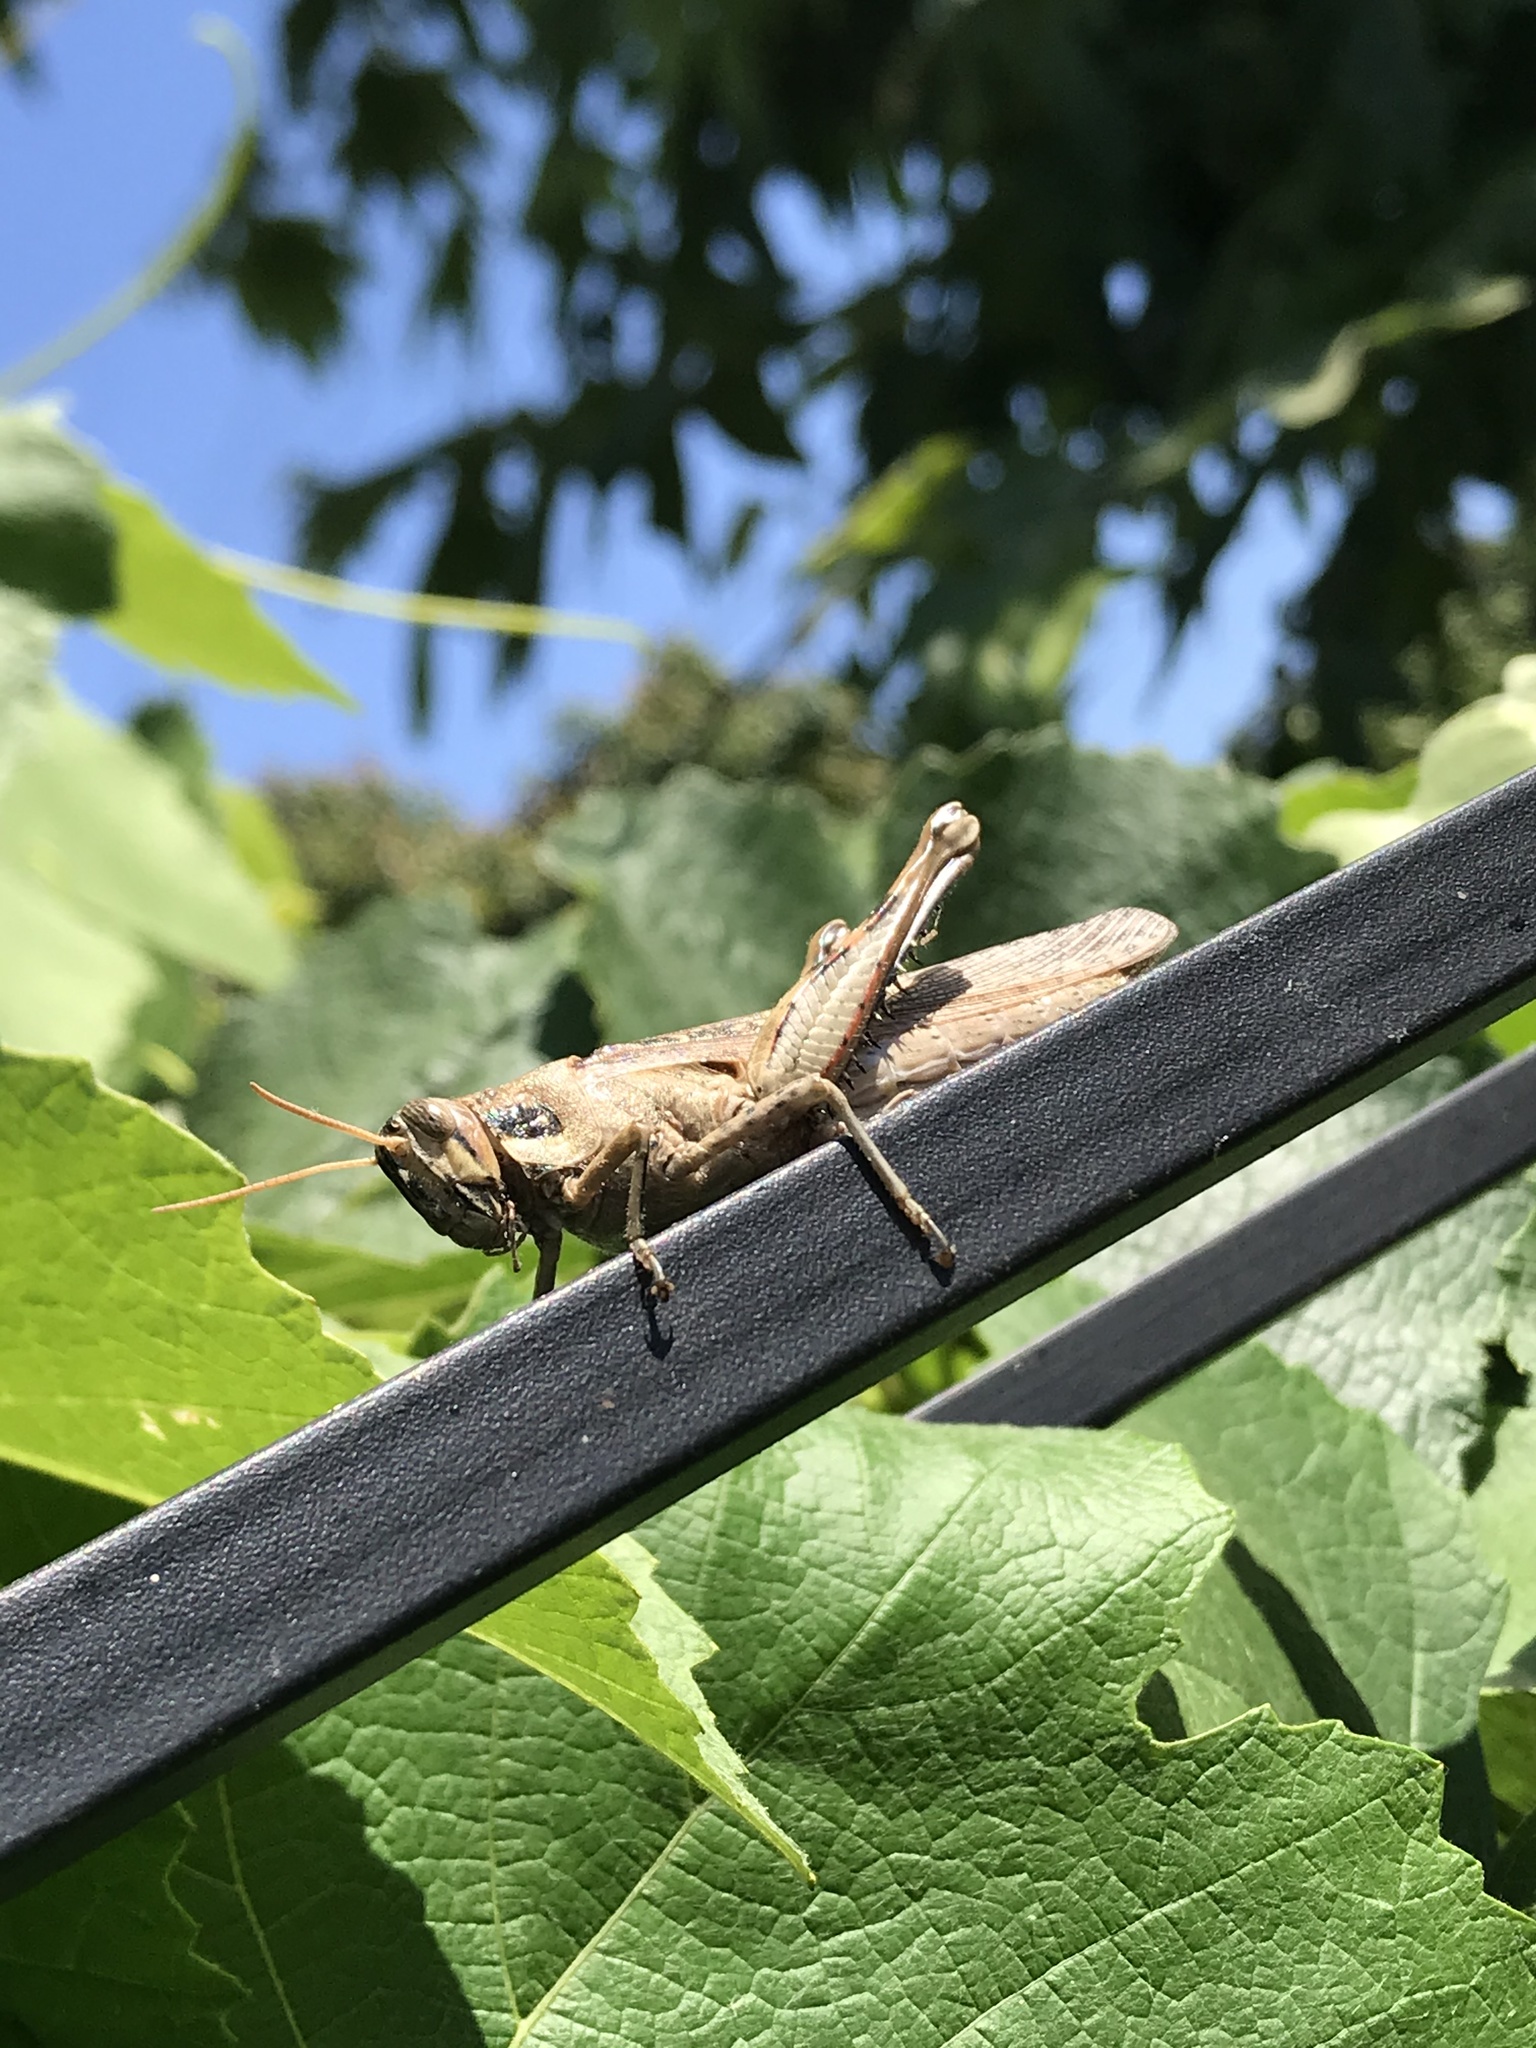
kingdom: Animalia
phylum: Arthropoda
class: Insecta
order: Orthoptera
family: Acrididae
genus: Schistocerca
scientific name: Schistocerca nitens
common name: Vagrant grasshopper
